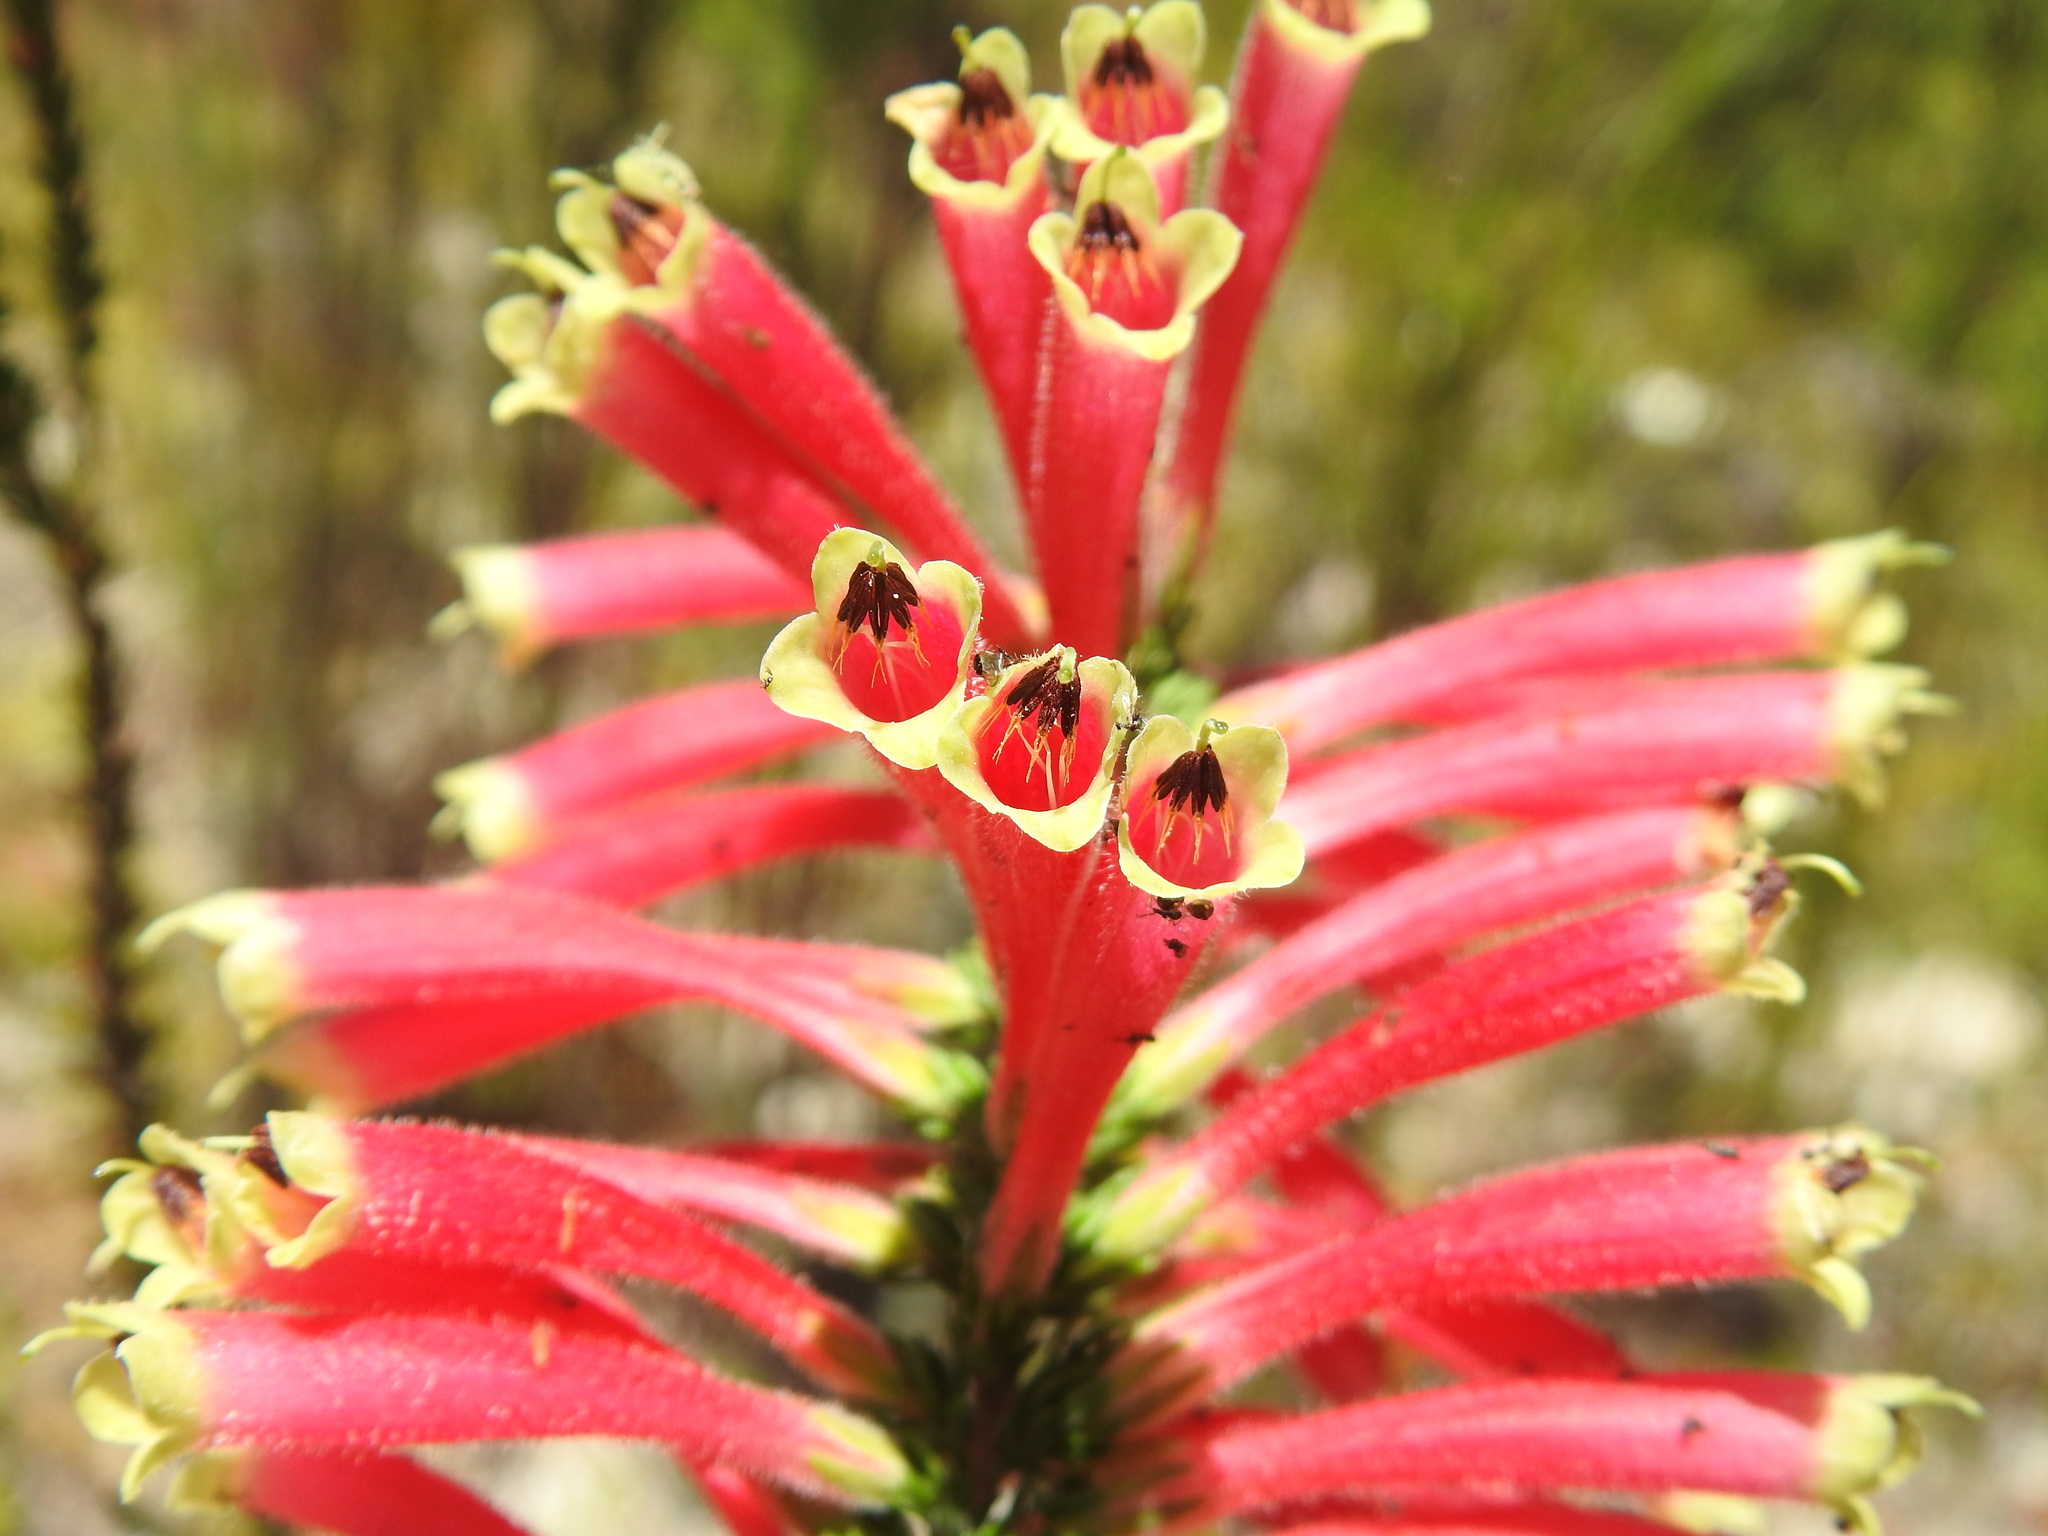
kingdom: Plantae
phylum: Tracheophyta
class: Magnoliopsida
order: Ericales
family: Ericaceae
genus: Erica
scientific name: Erica densifolia
